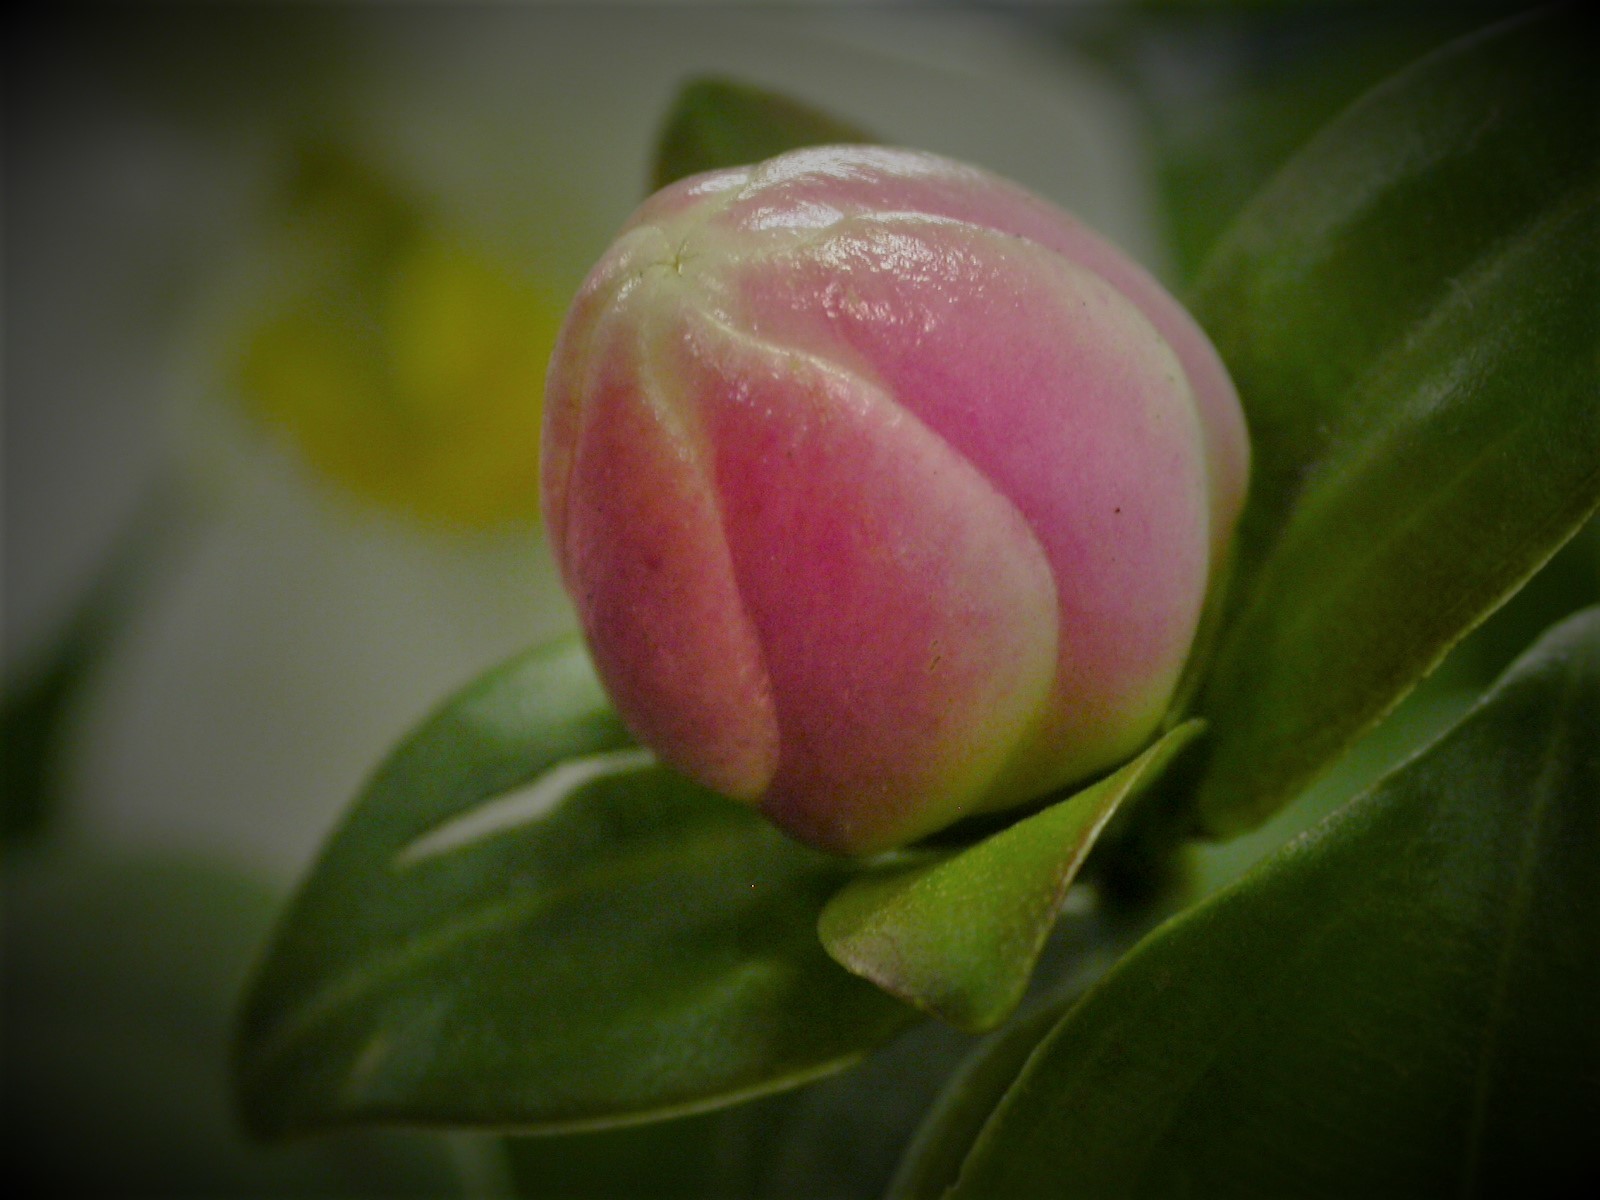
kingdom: Plantae
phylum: Tracheophyta
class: Magnoliopsida
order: Myrtales
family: Melastomataceae
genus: Blakea
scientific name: Blakea gracilis
